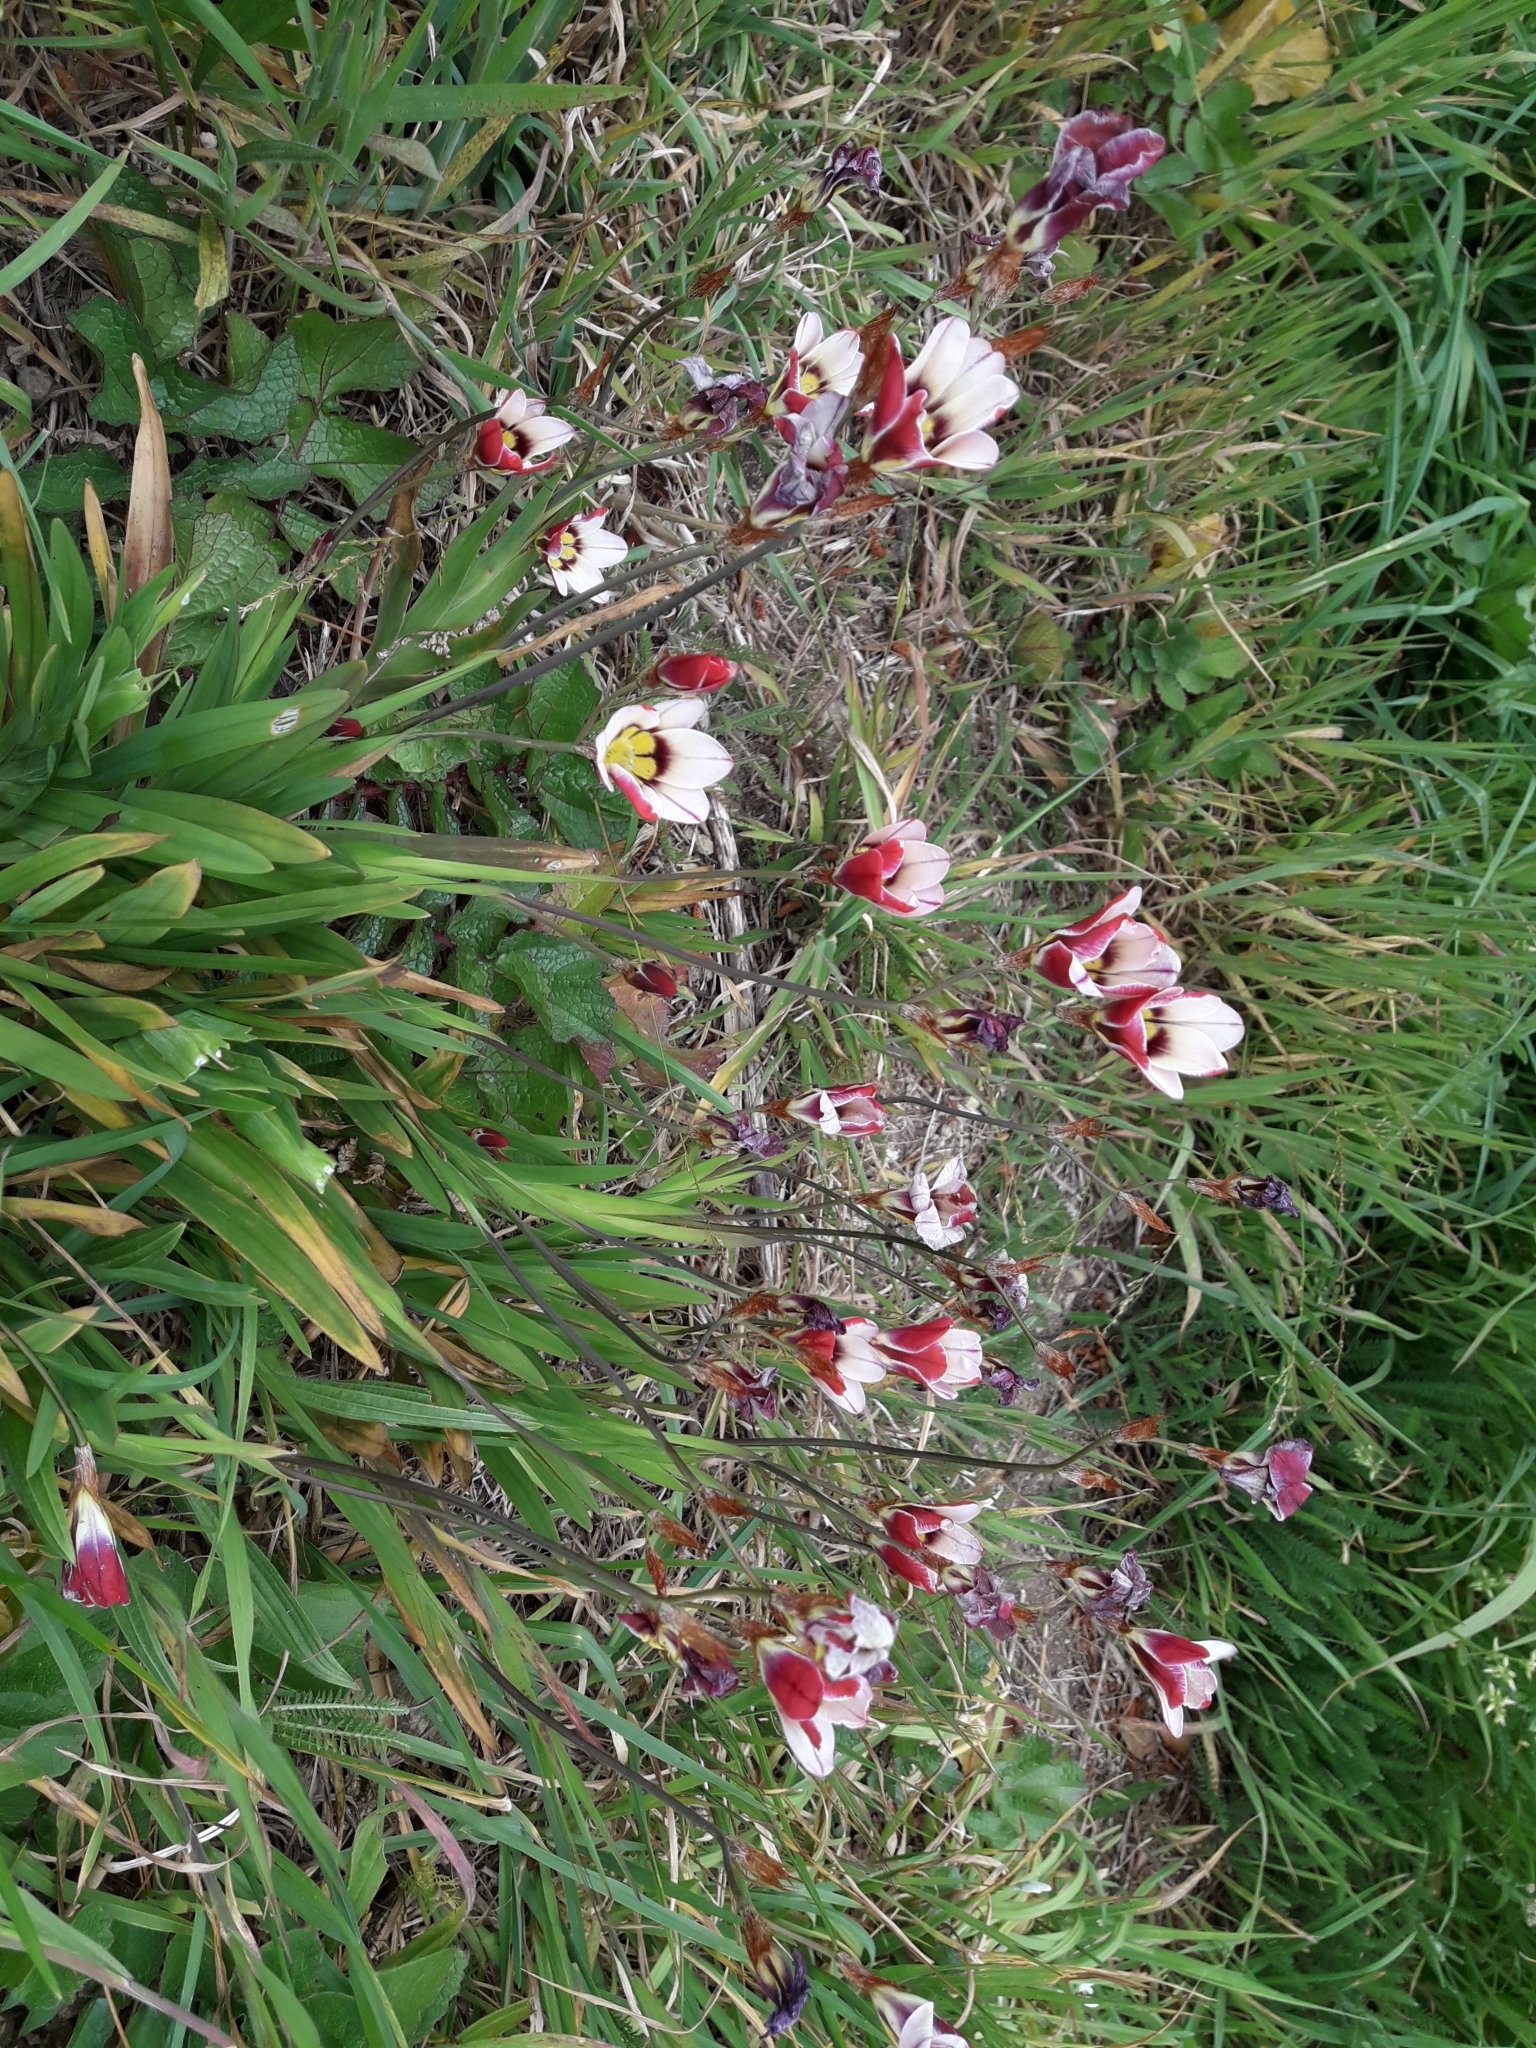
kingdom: Plantae
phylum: Tracheophyta
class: Liliopsida
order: Asparagales
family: Iridaceae
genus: Sparaxis
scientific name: Sparaxis tricolor
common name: Wandflower
